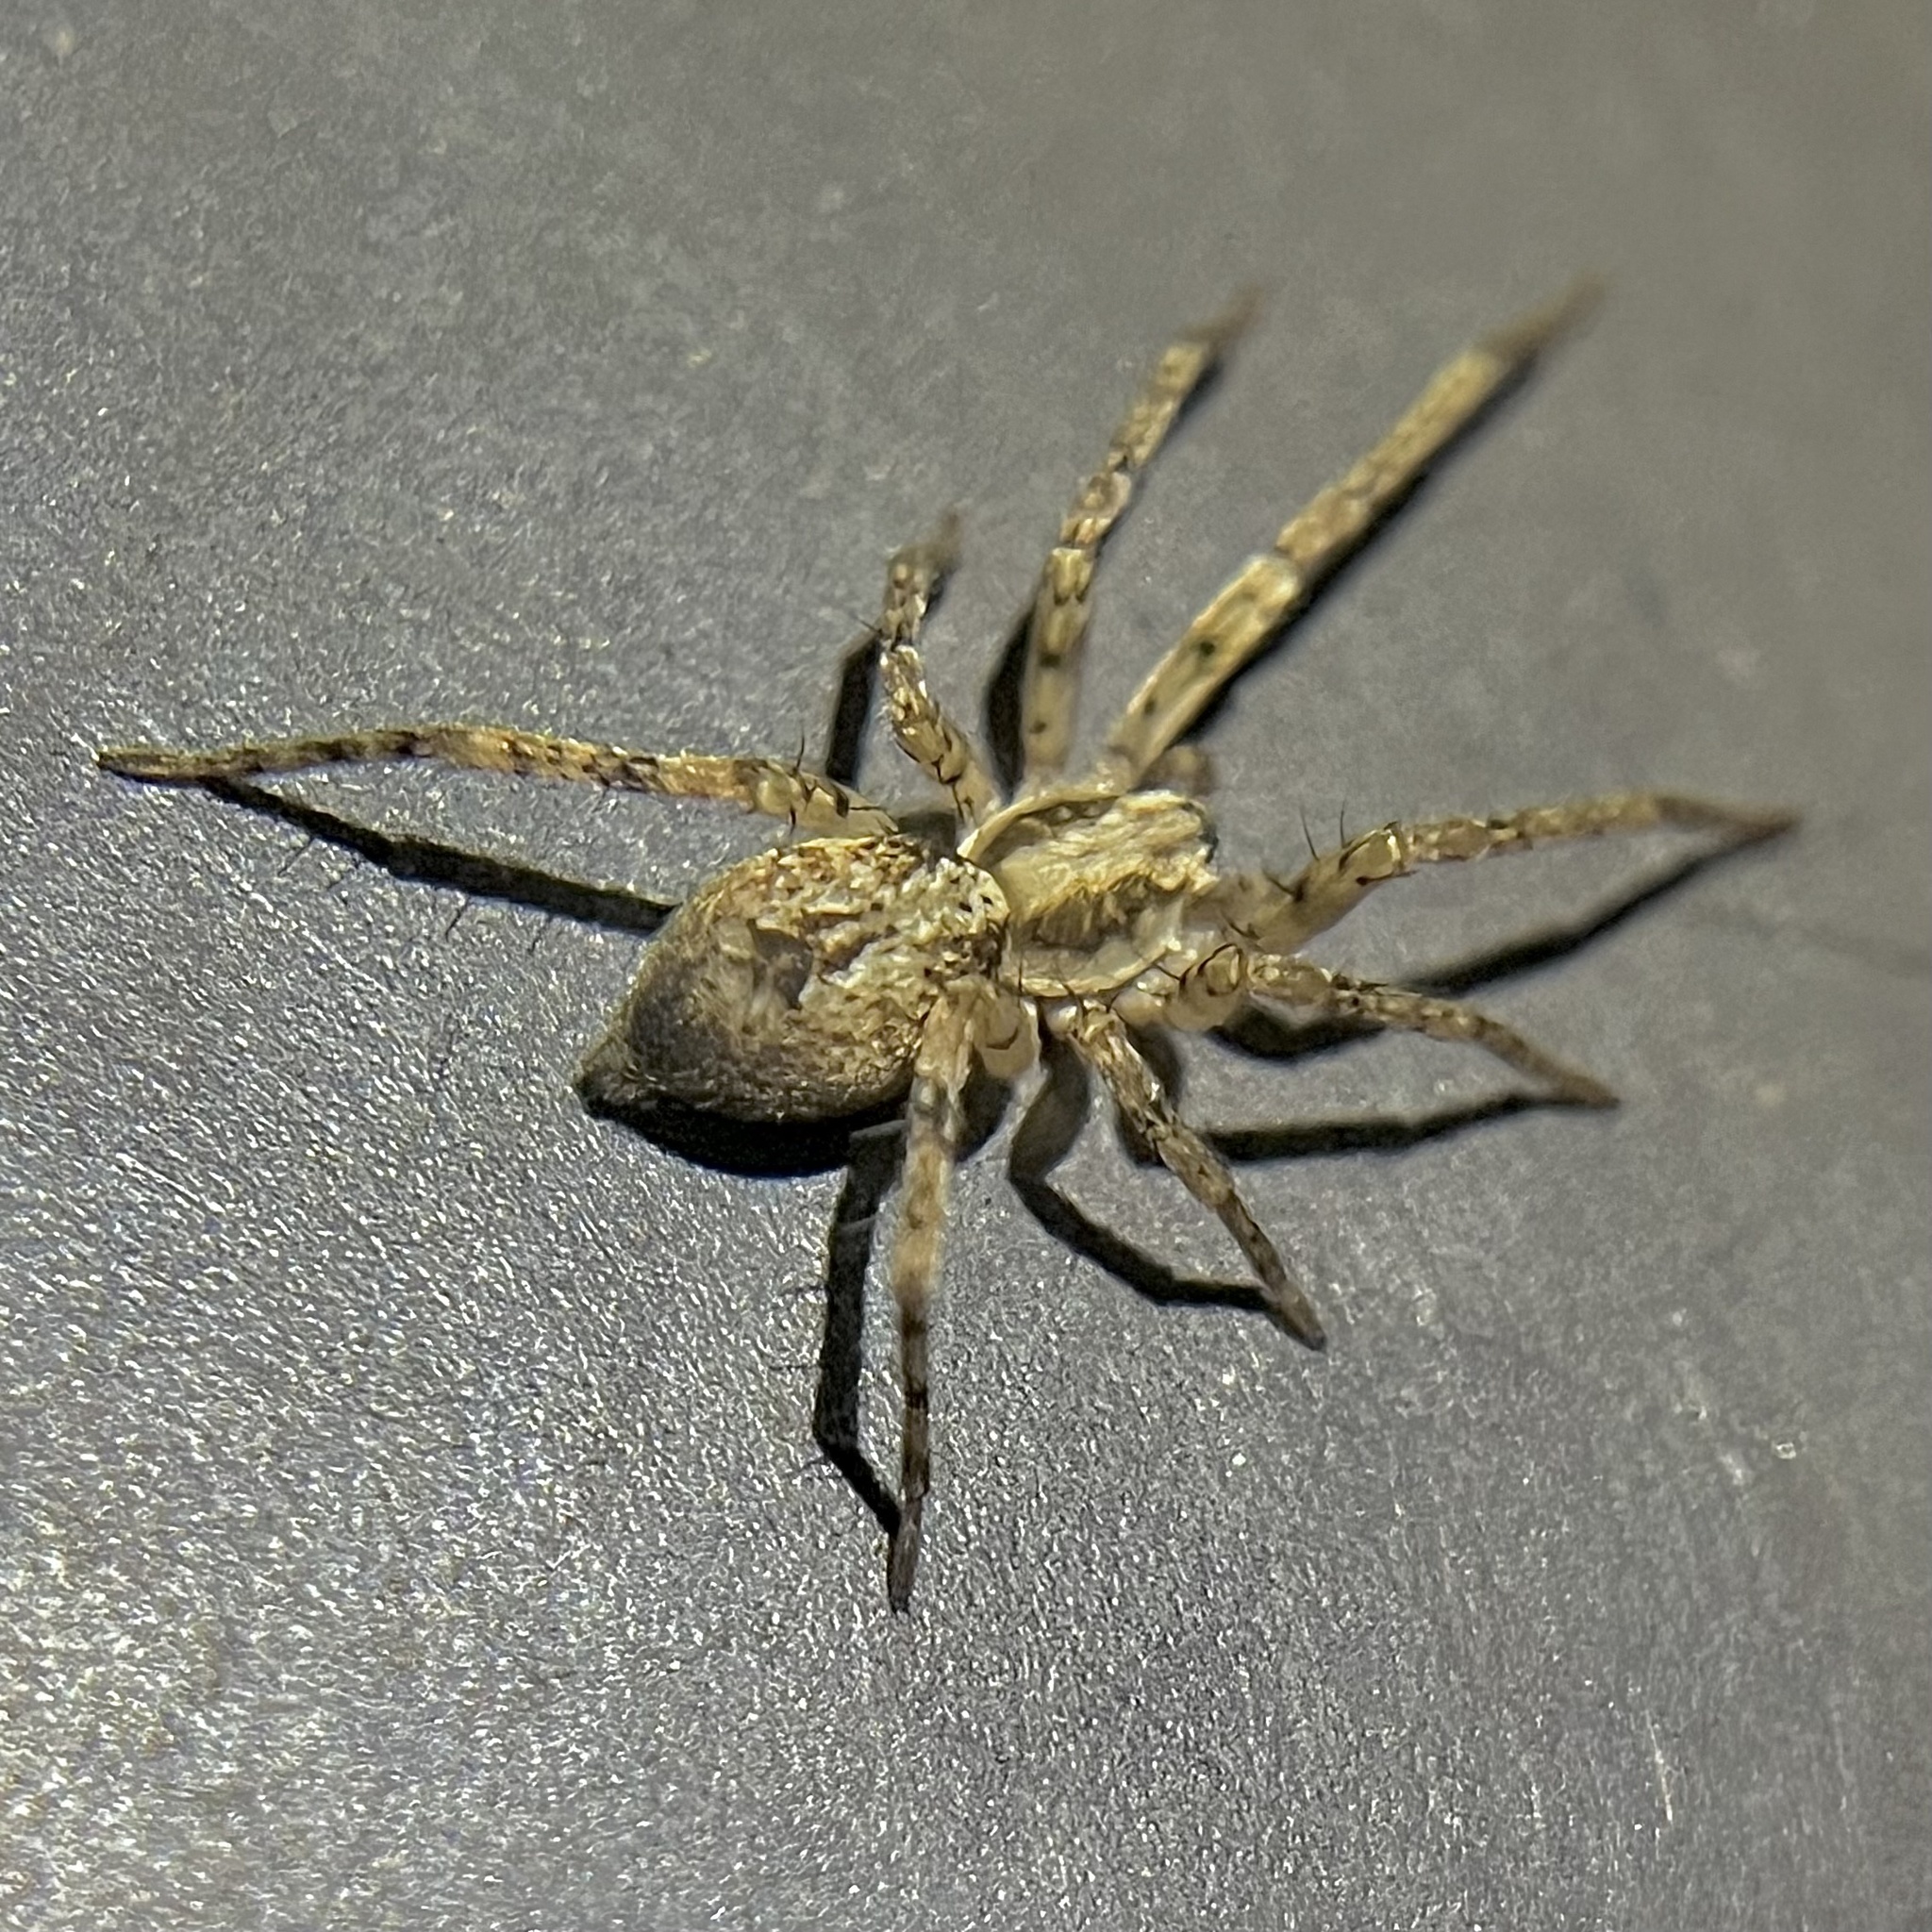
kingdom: Animalia
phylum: Arthropoda
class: Arachnida
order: Araneae
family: Anyphaenidae
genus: Anyphaena
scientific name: Anyphaena accentuata
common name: Buzzing spider
